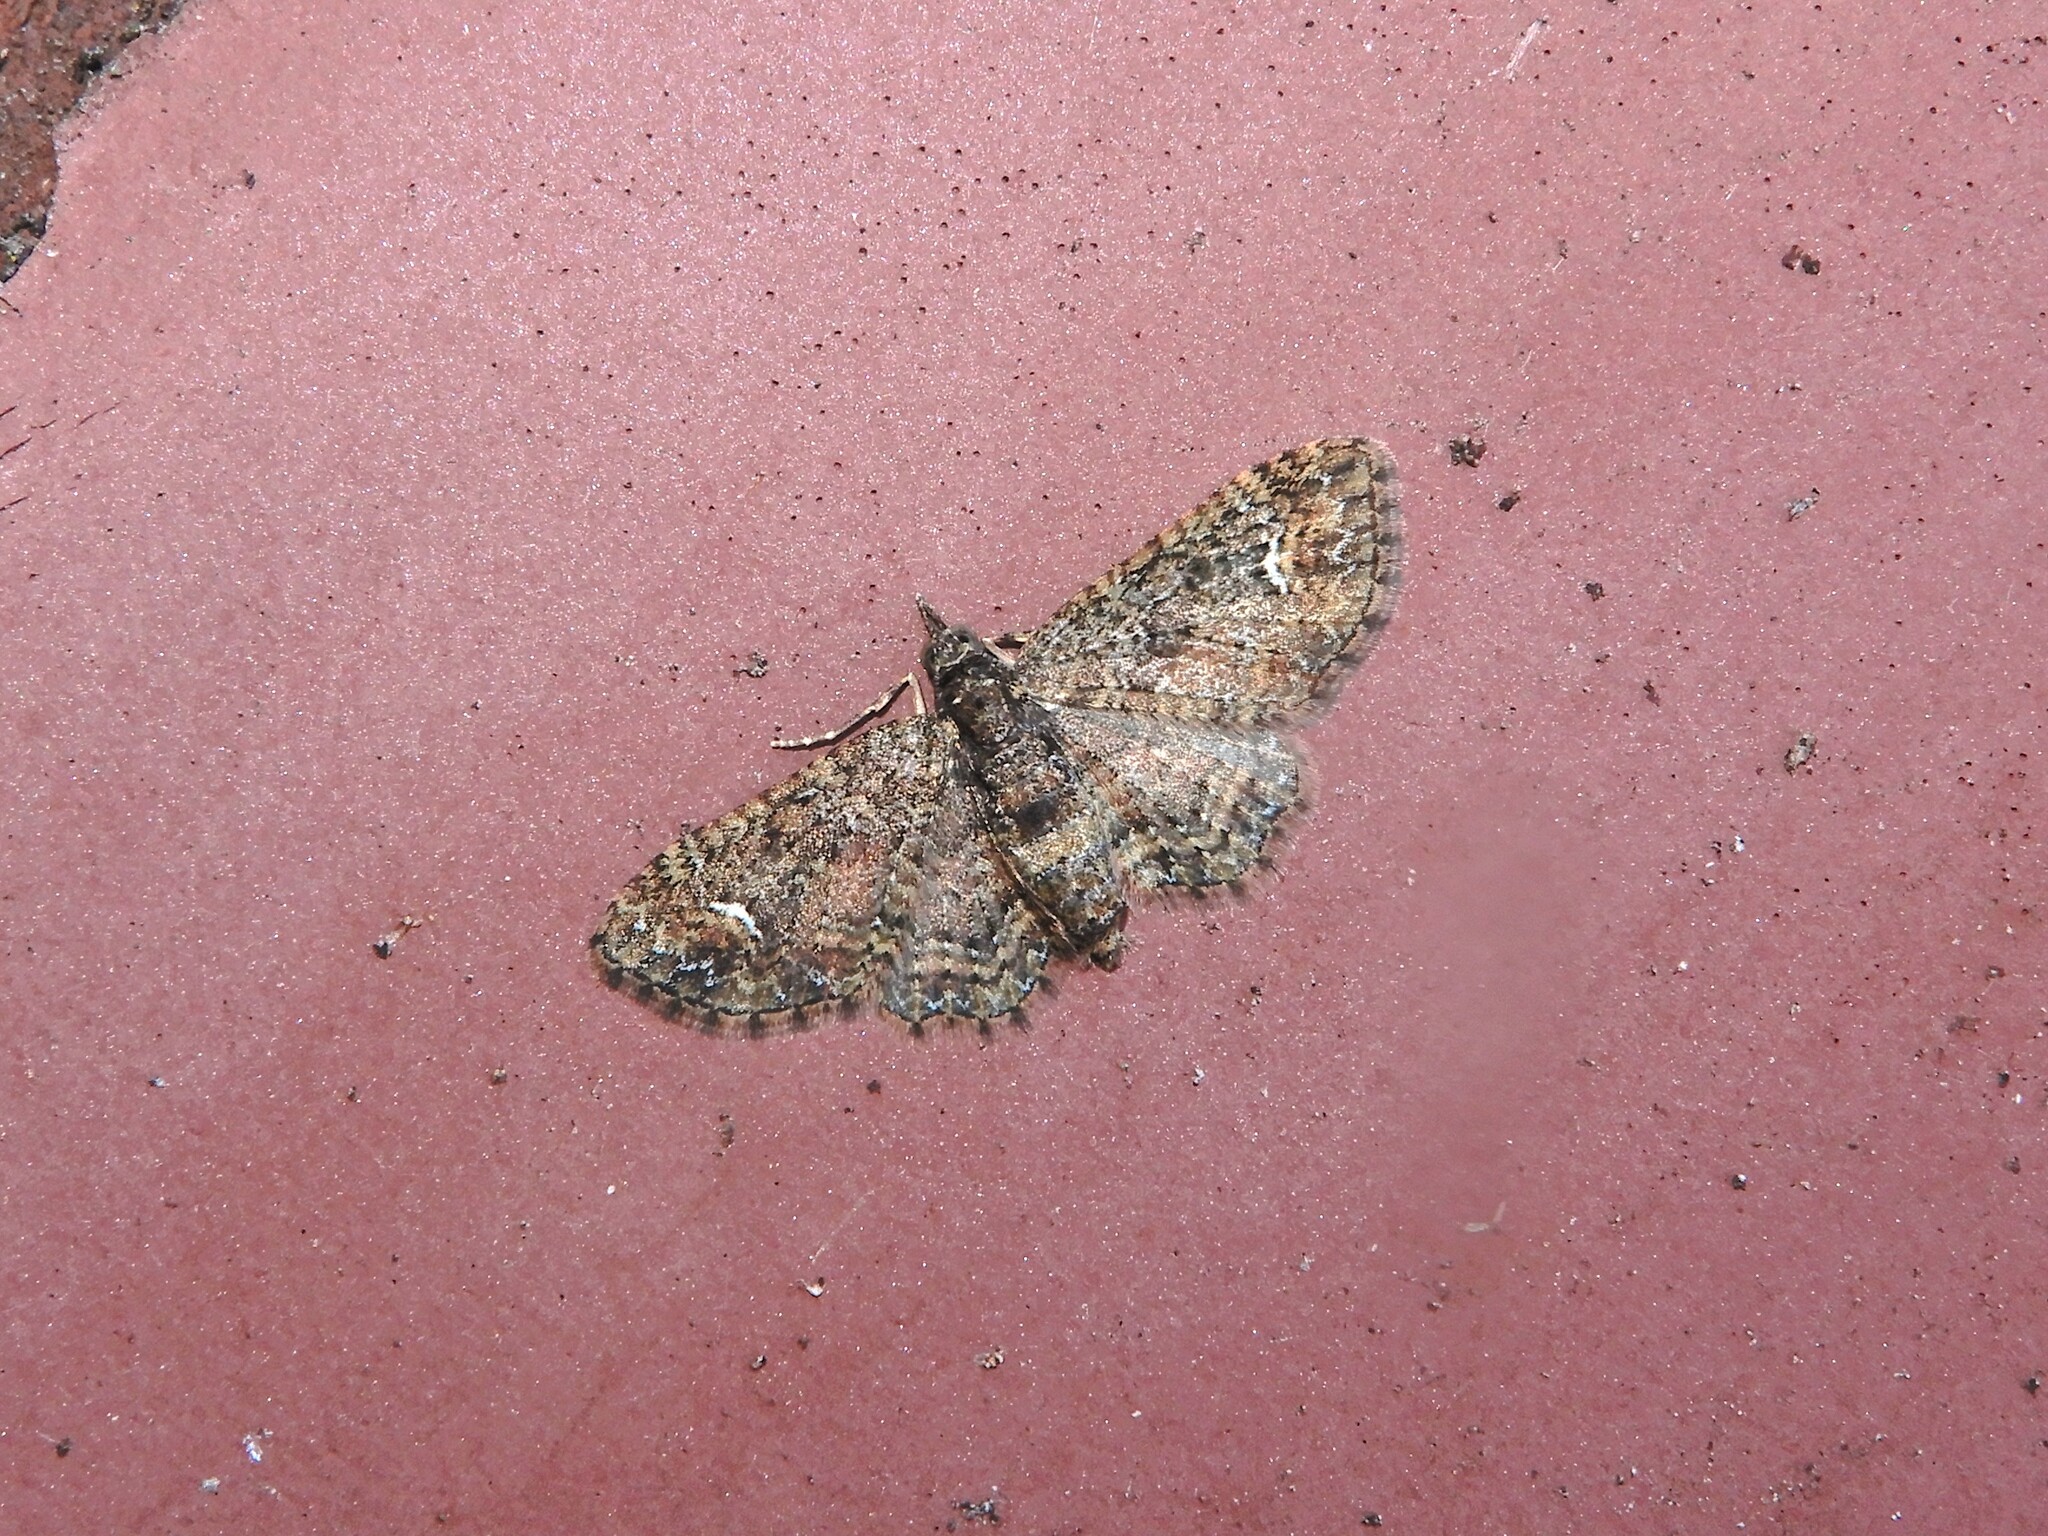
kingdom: Animalia
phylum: Arthropoda
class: Insecta
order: Lepidoptera
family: Geometridae
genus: Pasiphilodes
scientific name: Pasiphilodes testulata
